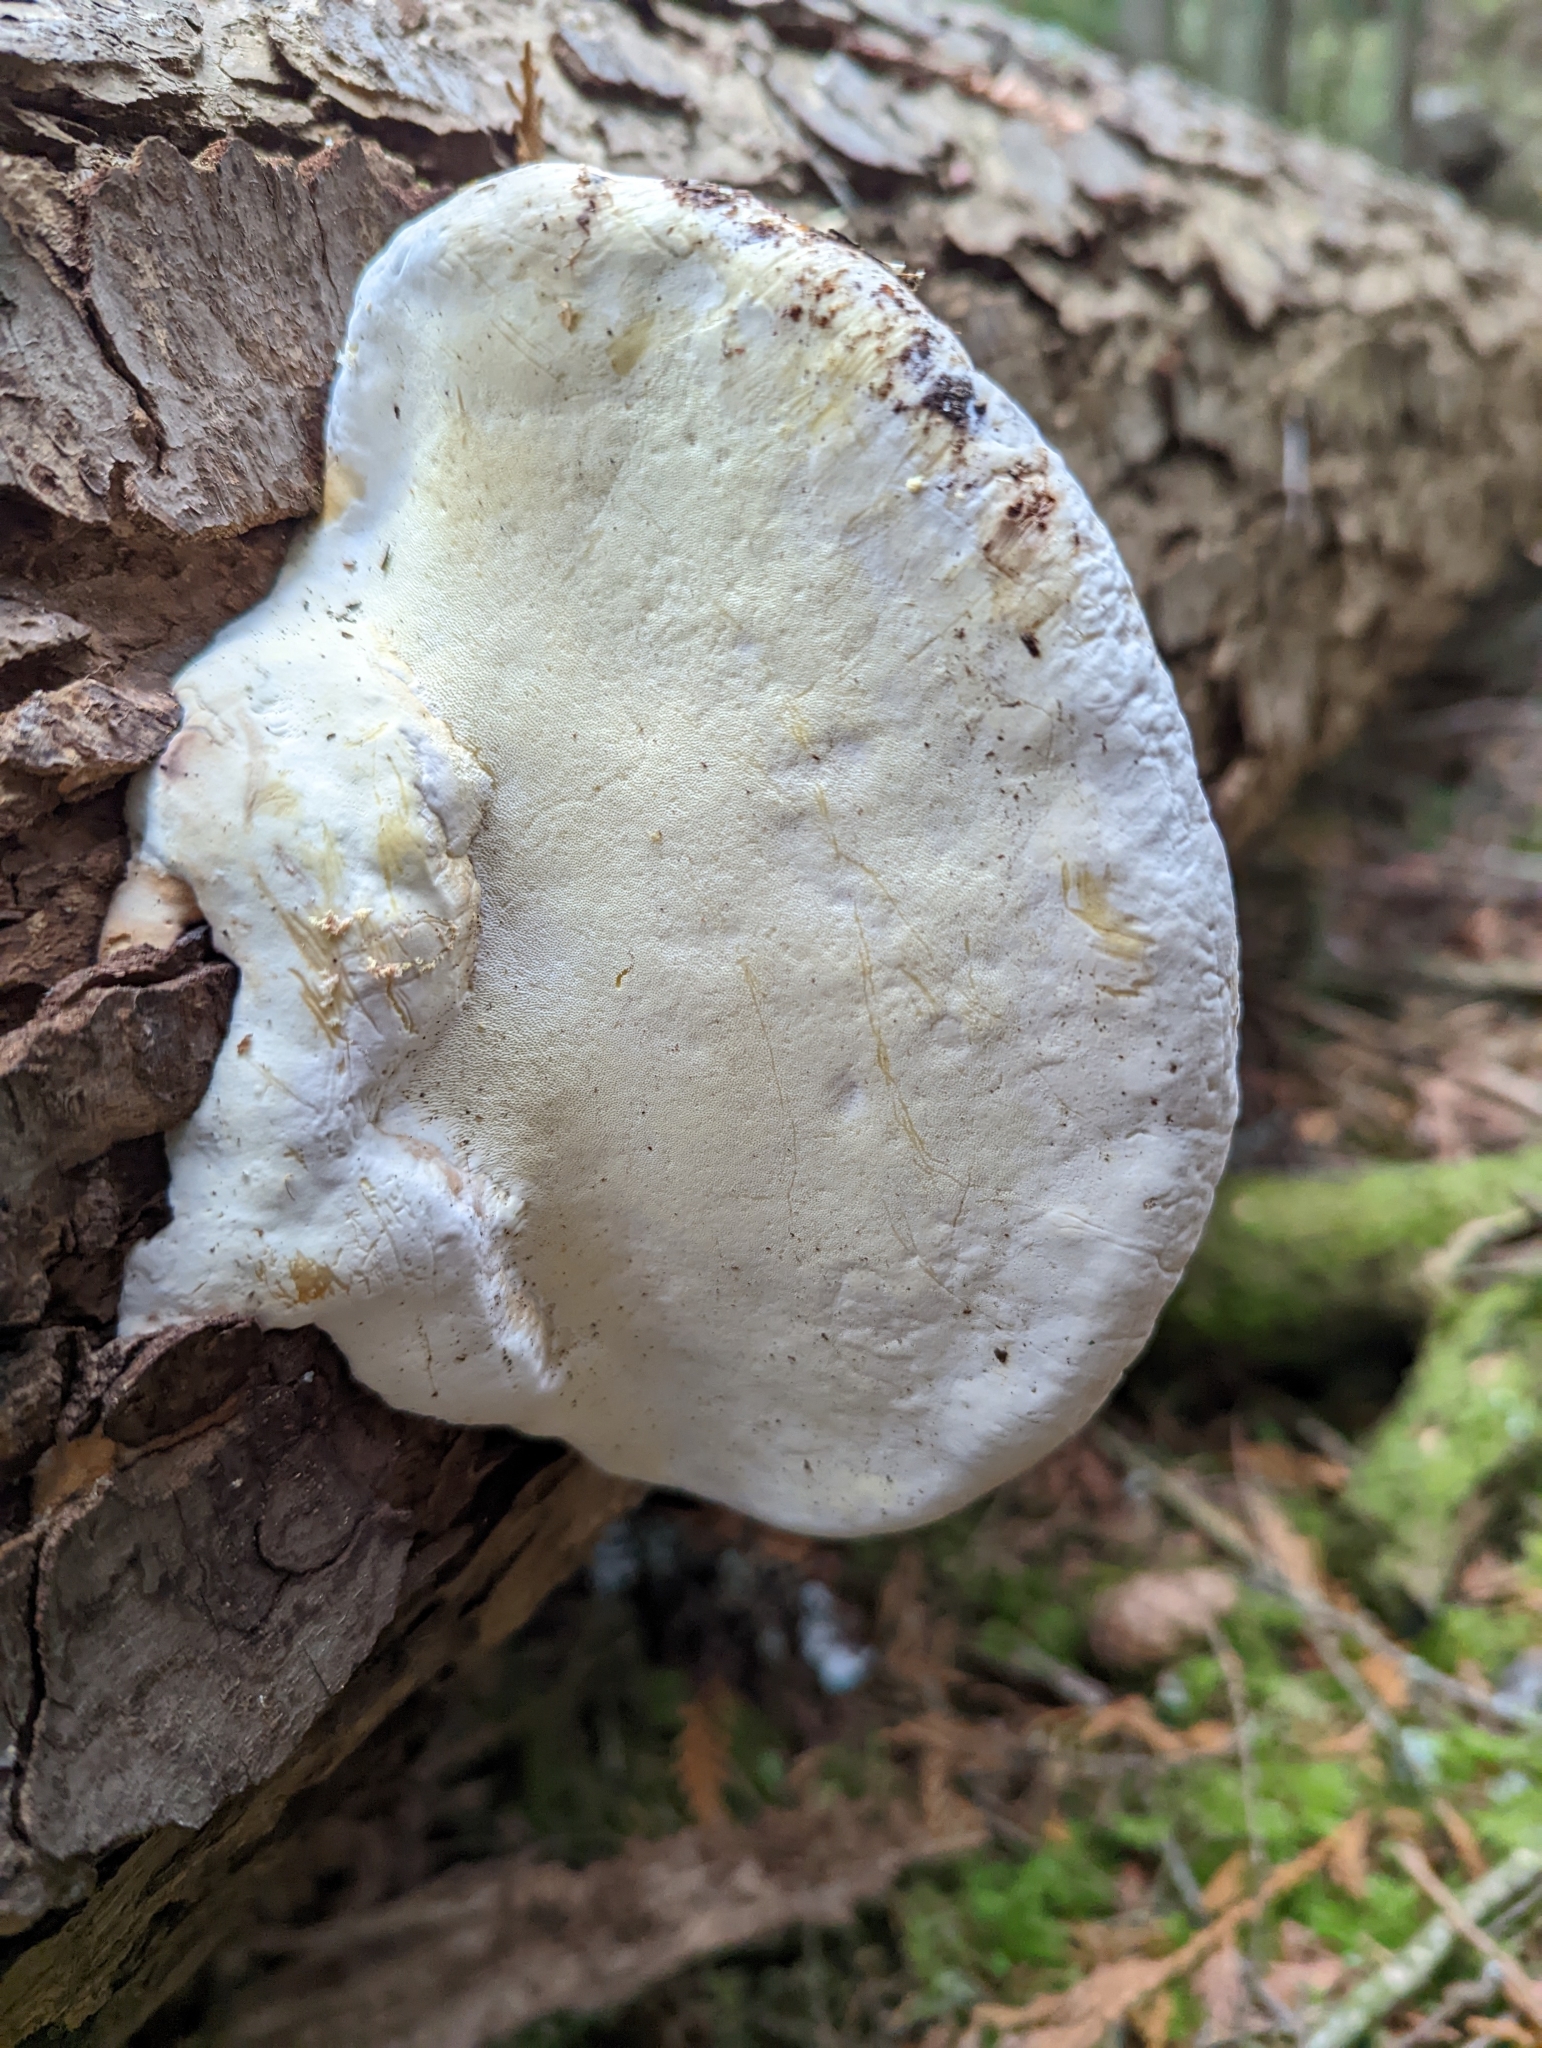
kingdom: Fungi
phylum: Basidiomycota
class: Agaricomycetes
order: Polyporales
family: Fomitopsidaceae
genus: Fomitopsis
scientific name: Fomitopsis mounceae
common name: Northern red belt
